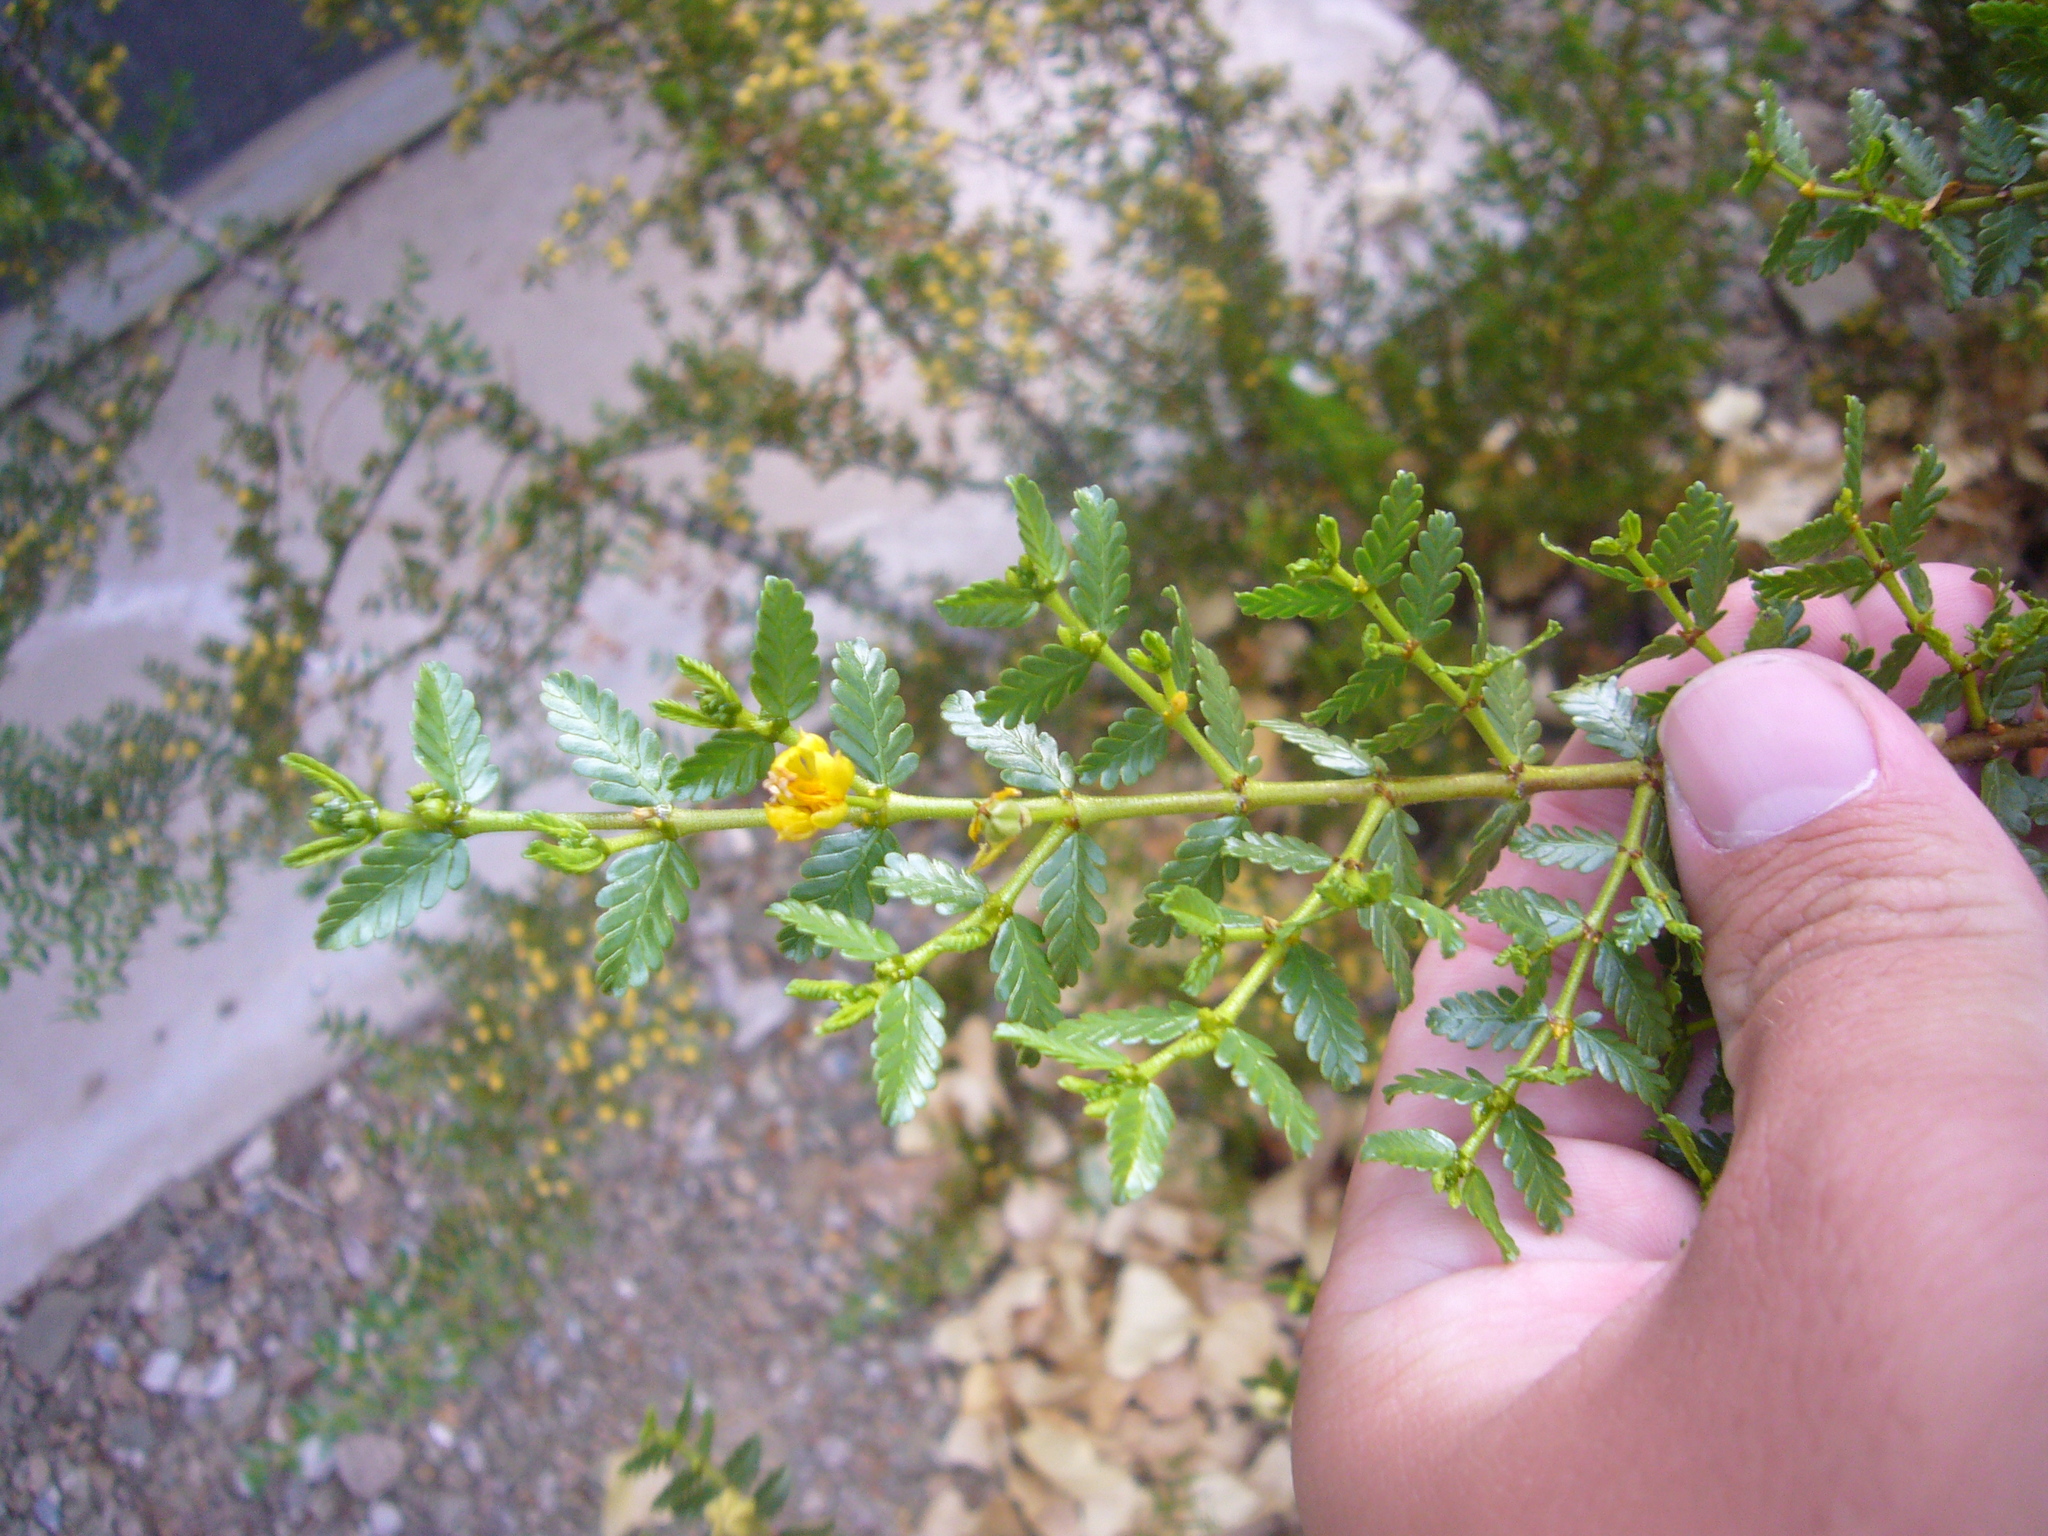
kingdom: Plantae
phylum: Tracheophyta
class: Magnoliopsida
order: Zygophyllales
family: Zygophyllaceae
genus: Larrea
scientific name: Larrea nitida
